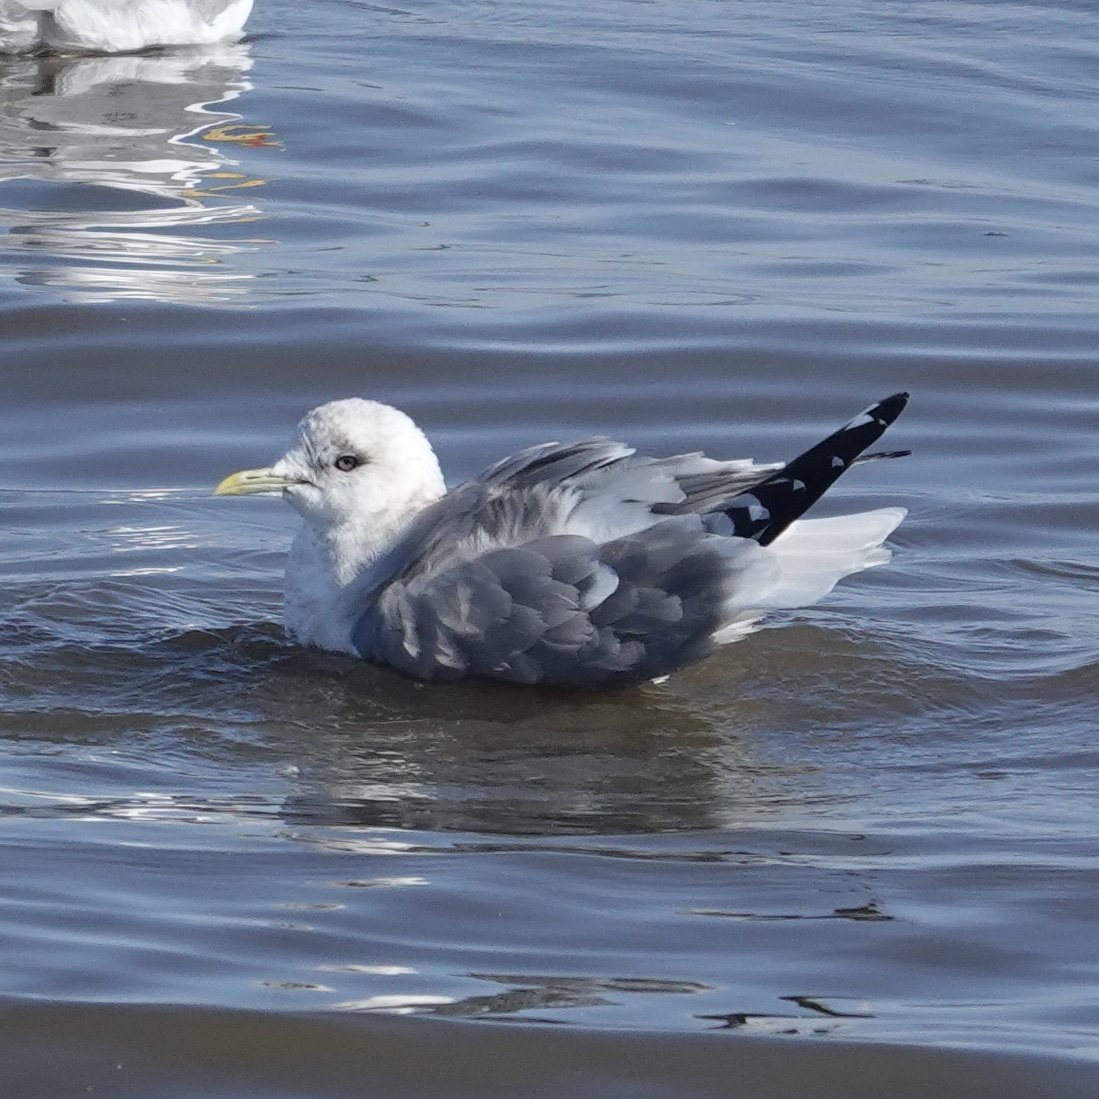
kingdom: Animalia
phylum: Chordata
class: Aves
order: Charadriiformes
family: Laridae
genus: Larus
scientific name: Larus brachyrhynchus
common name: Short-billed gull
